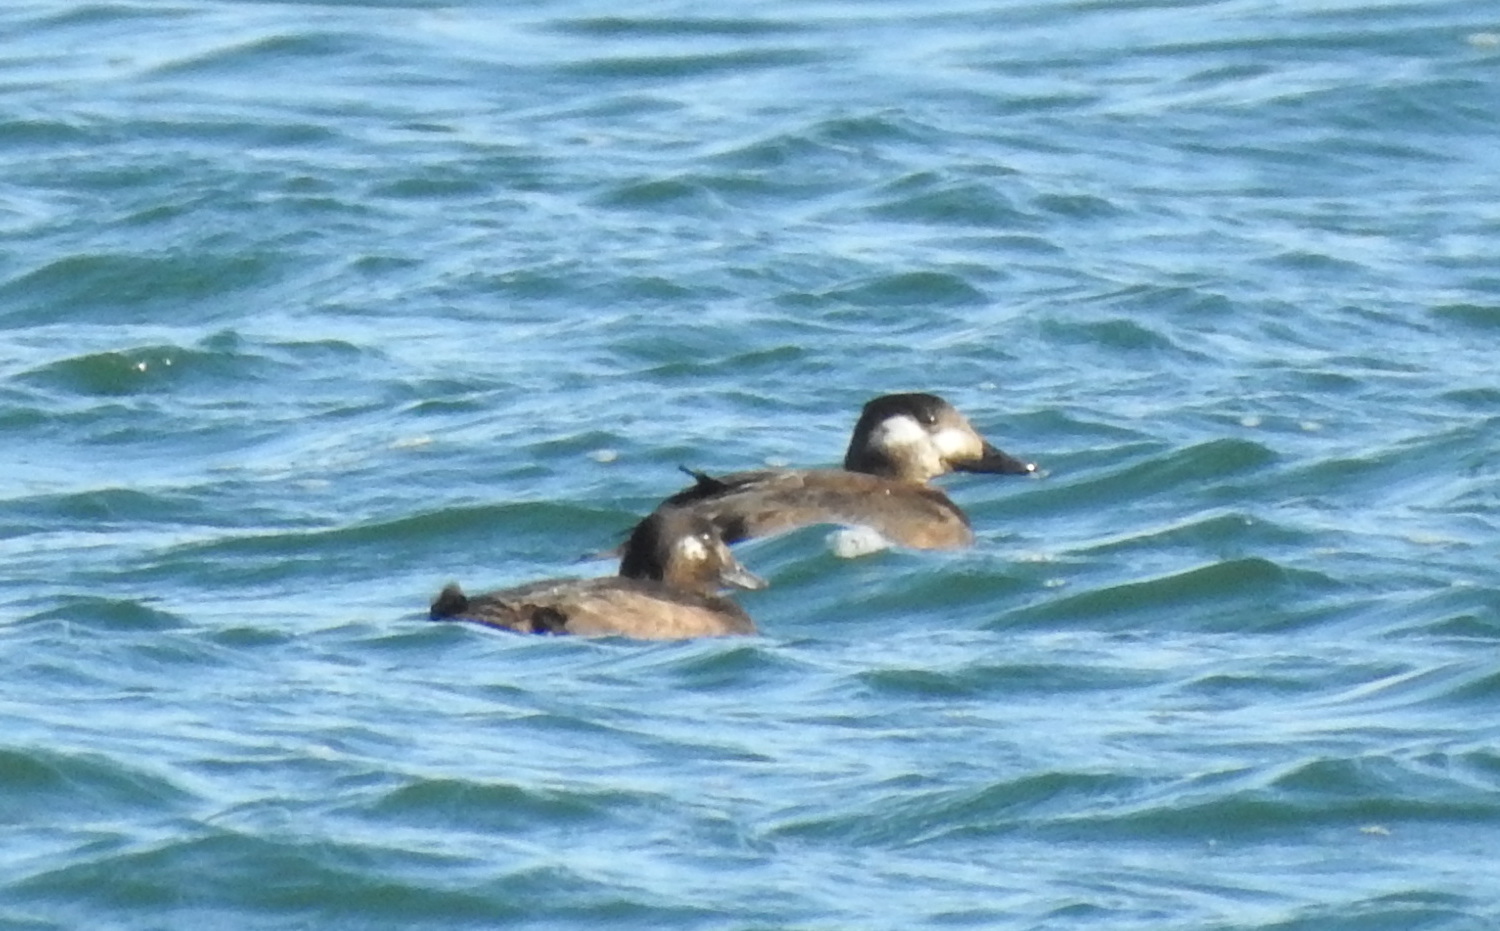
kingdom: Animalia
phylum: Chordata
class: Aves
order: Anseriformes
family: Anatidae
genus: Melanitta
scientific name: Melanitta perspicillata
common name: Surf scoter
